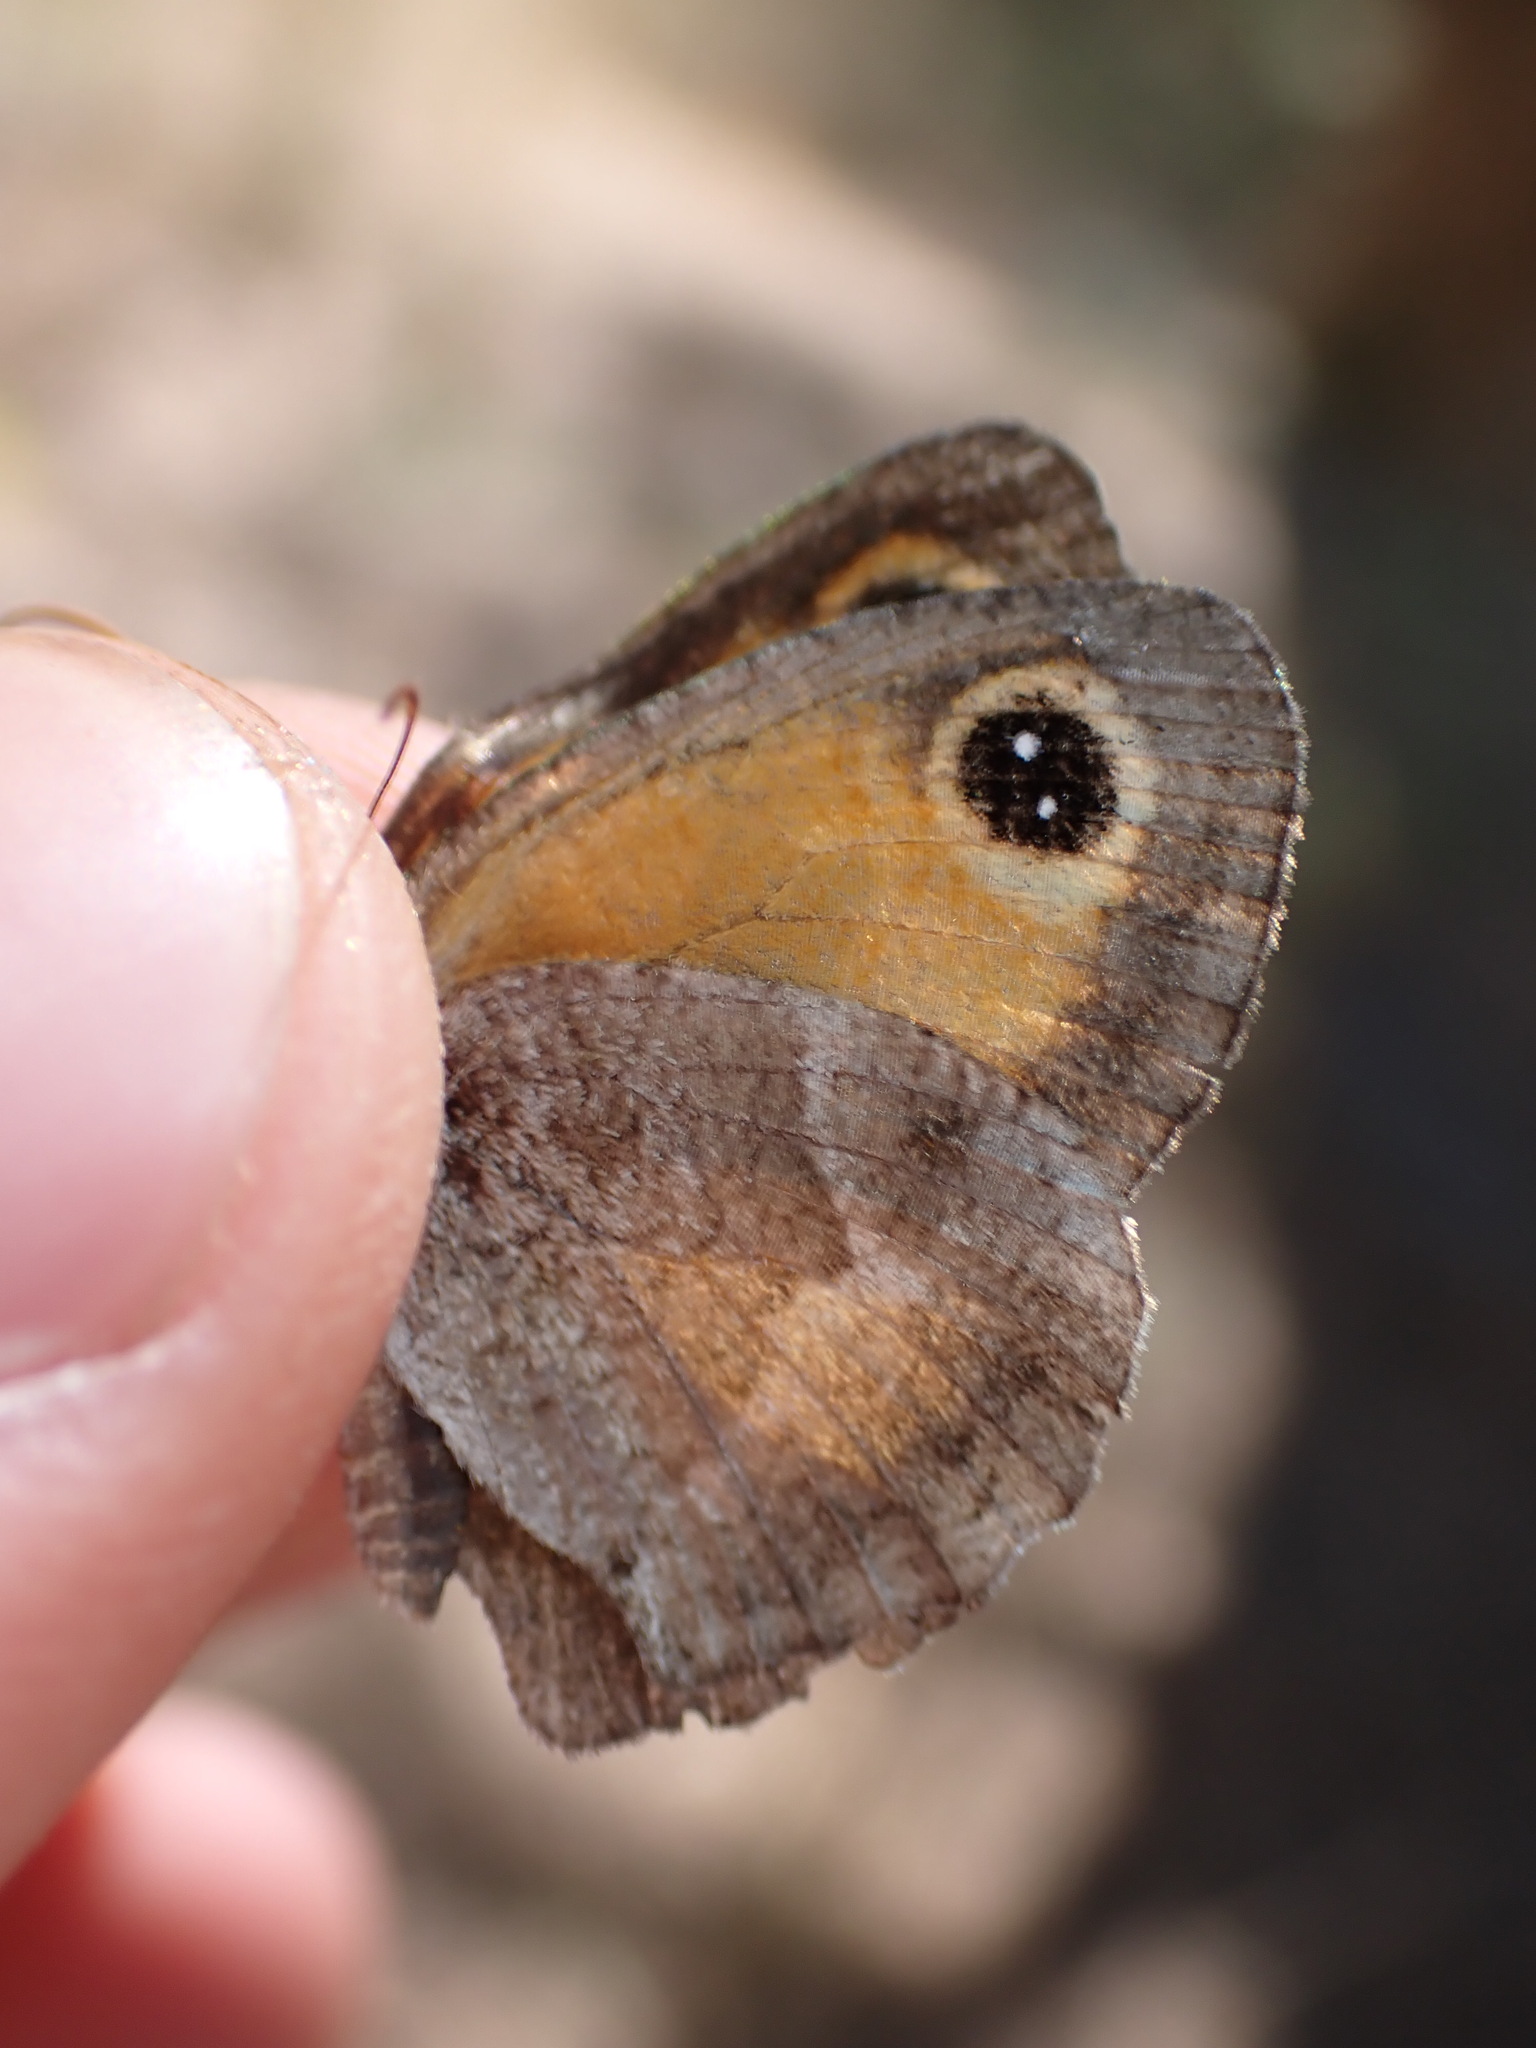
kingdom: Animalia
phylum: Arthropoda
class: Insecta
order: Lepidoptera
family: Nymphalidae
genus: Pyronia
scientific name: Pyronia cecilia
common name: Southern gatekeeper
